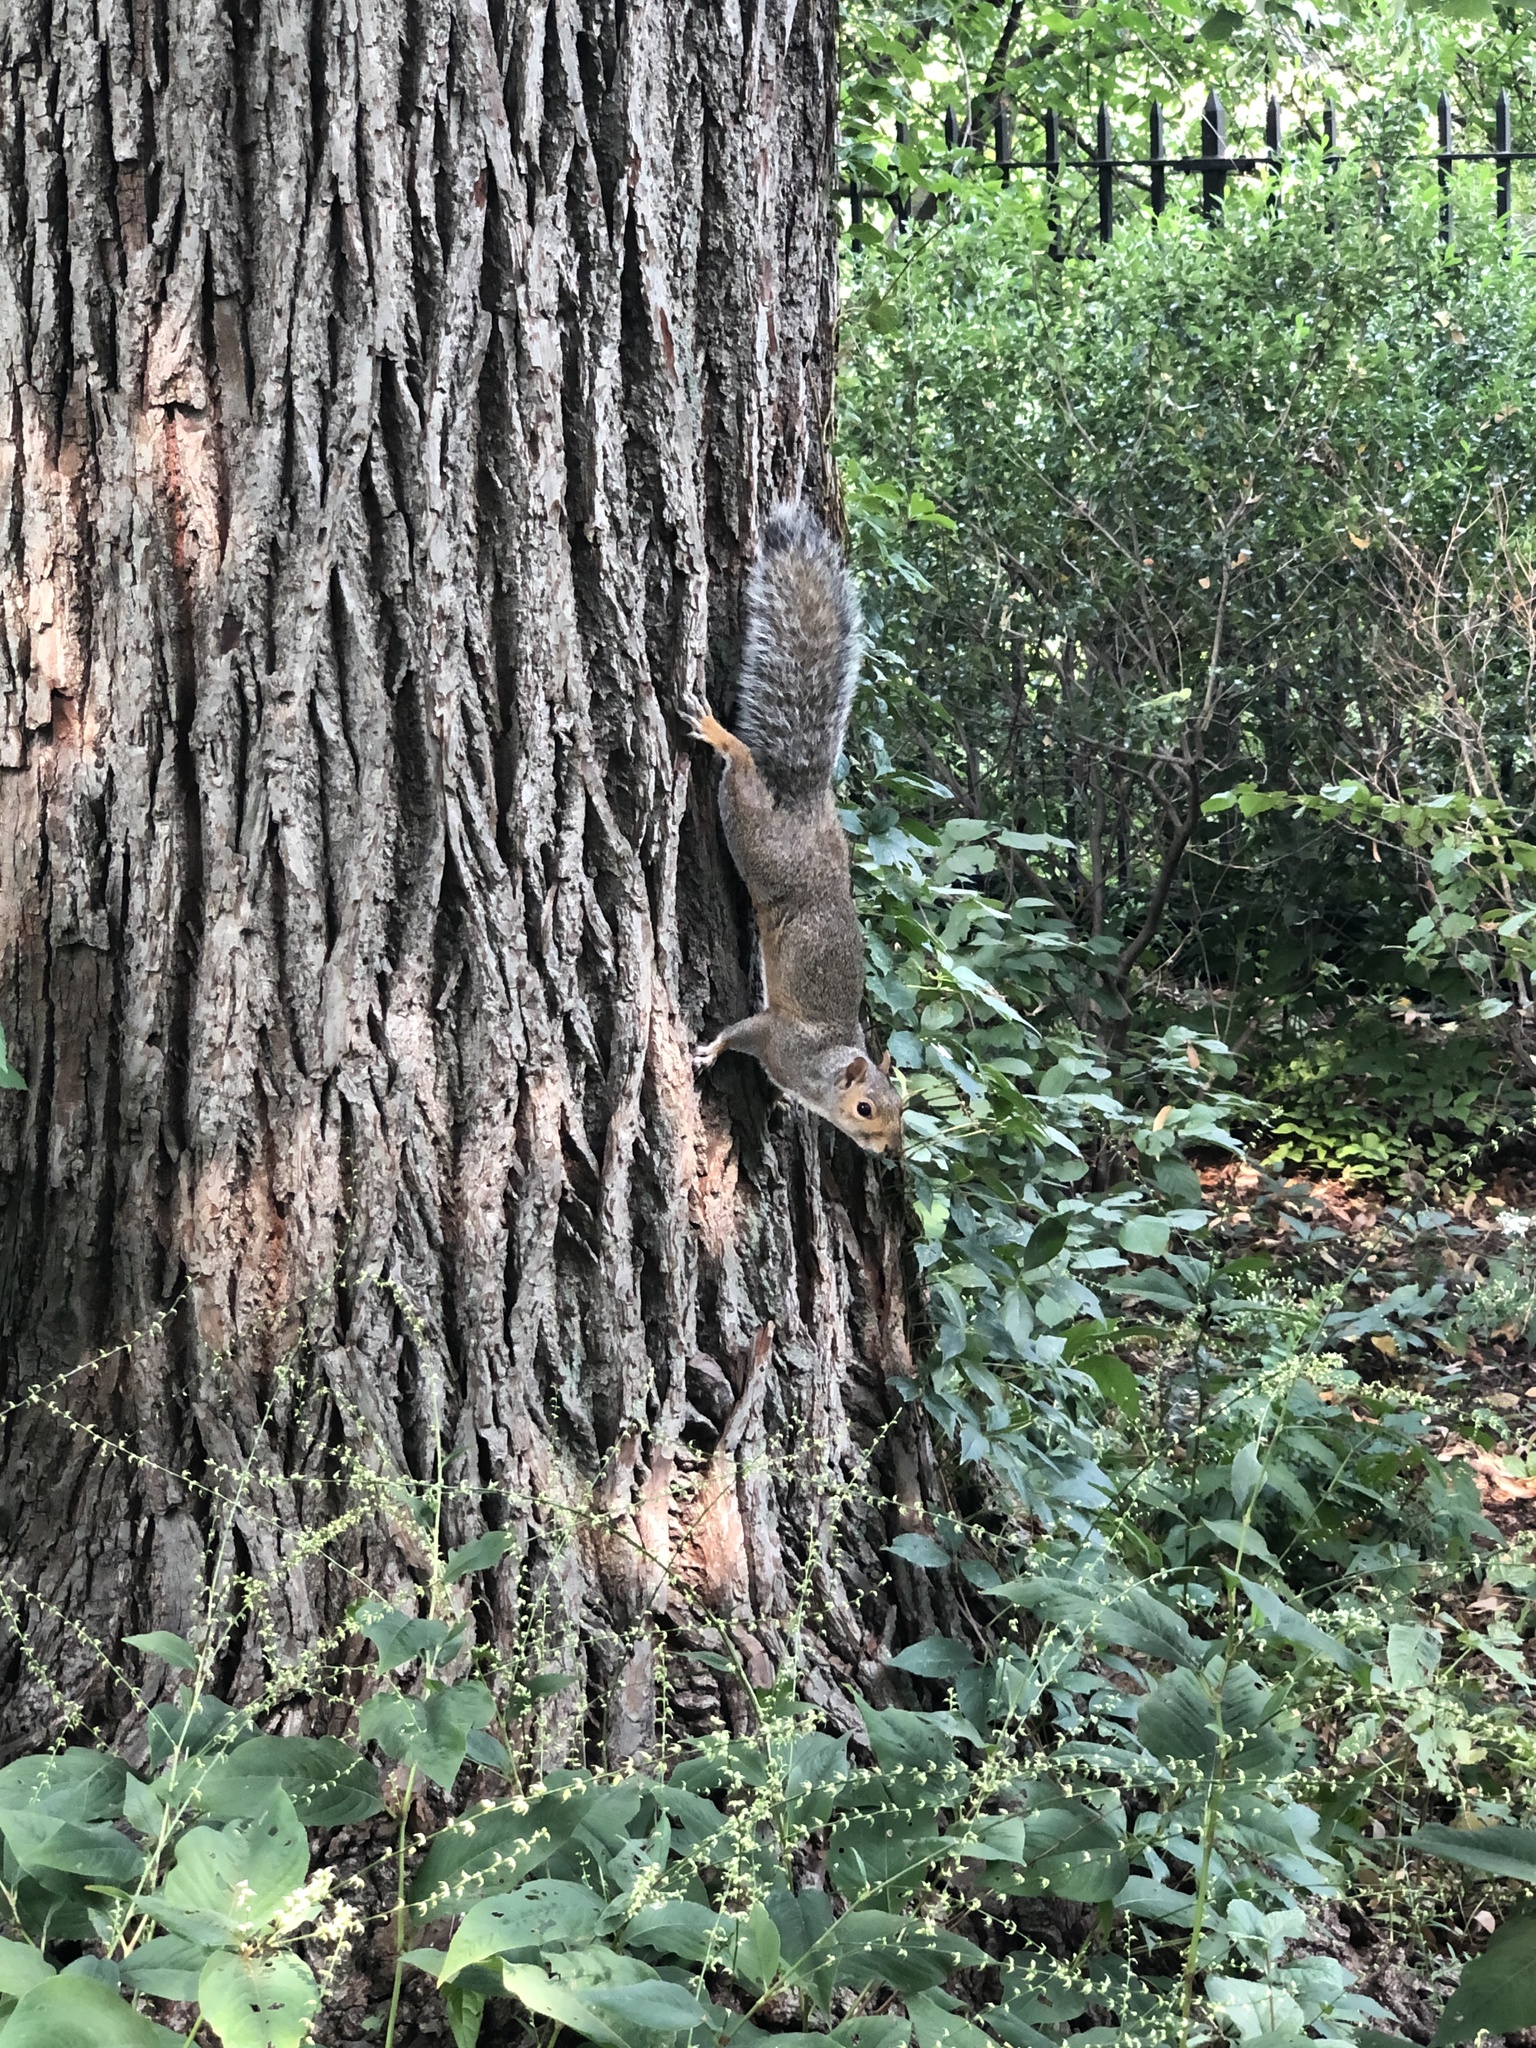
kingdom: Animalia
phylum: Chordata
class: Mammalia
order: Rodentia
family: Sciuridae
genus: Sciurus
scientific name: Sciurus carolinensis
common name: Eastern gray squirrel
